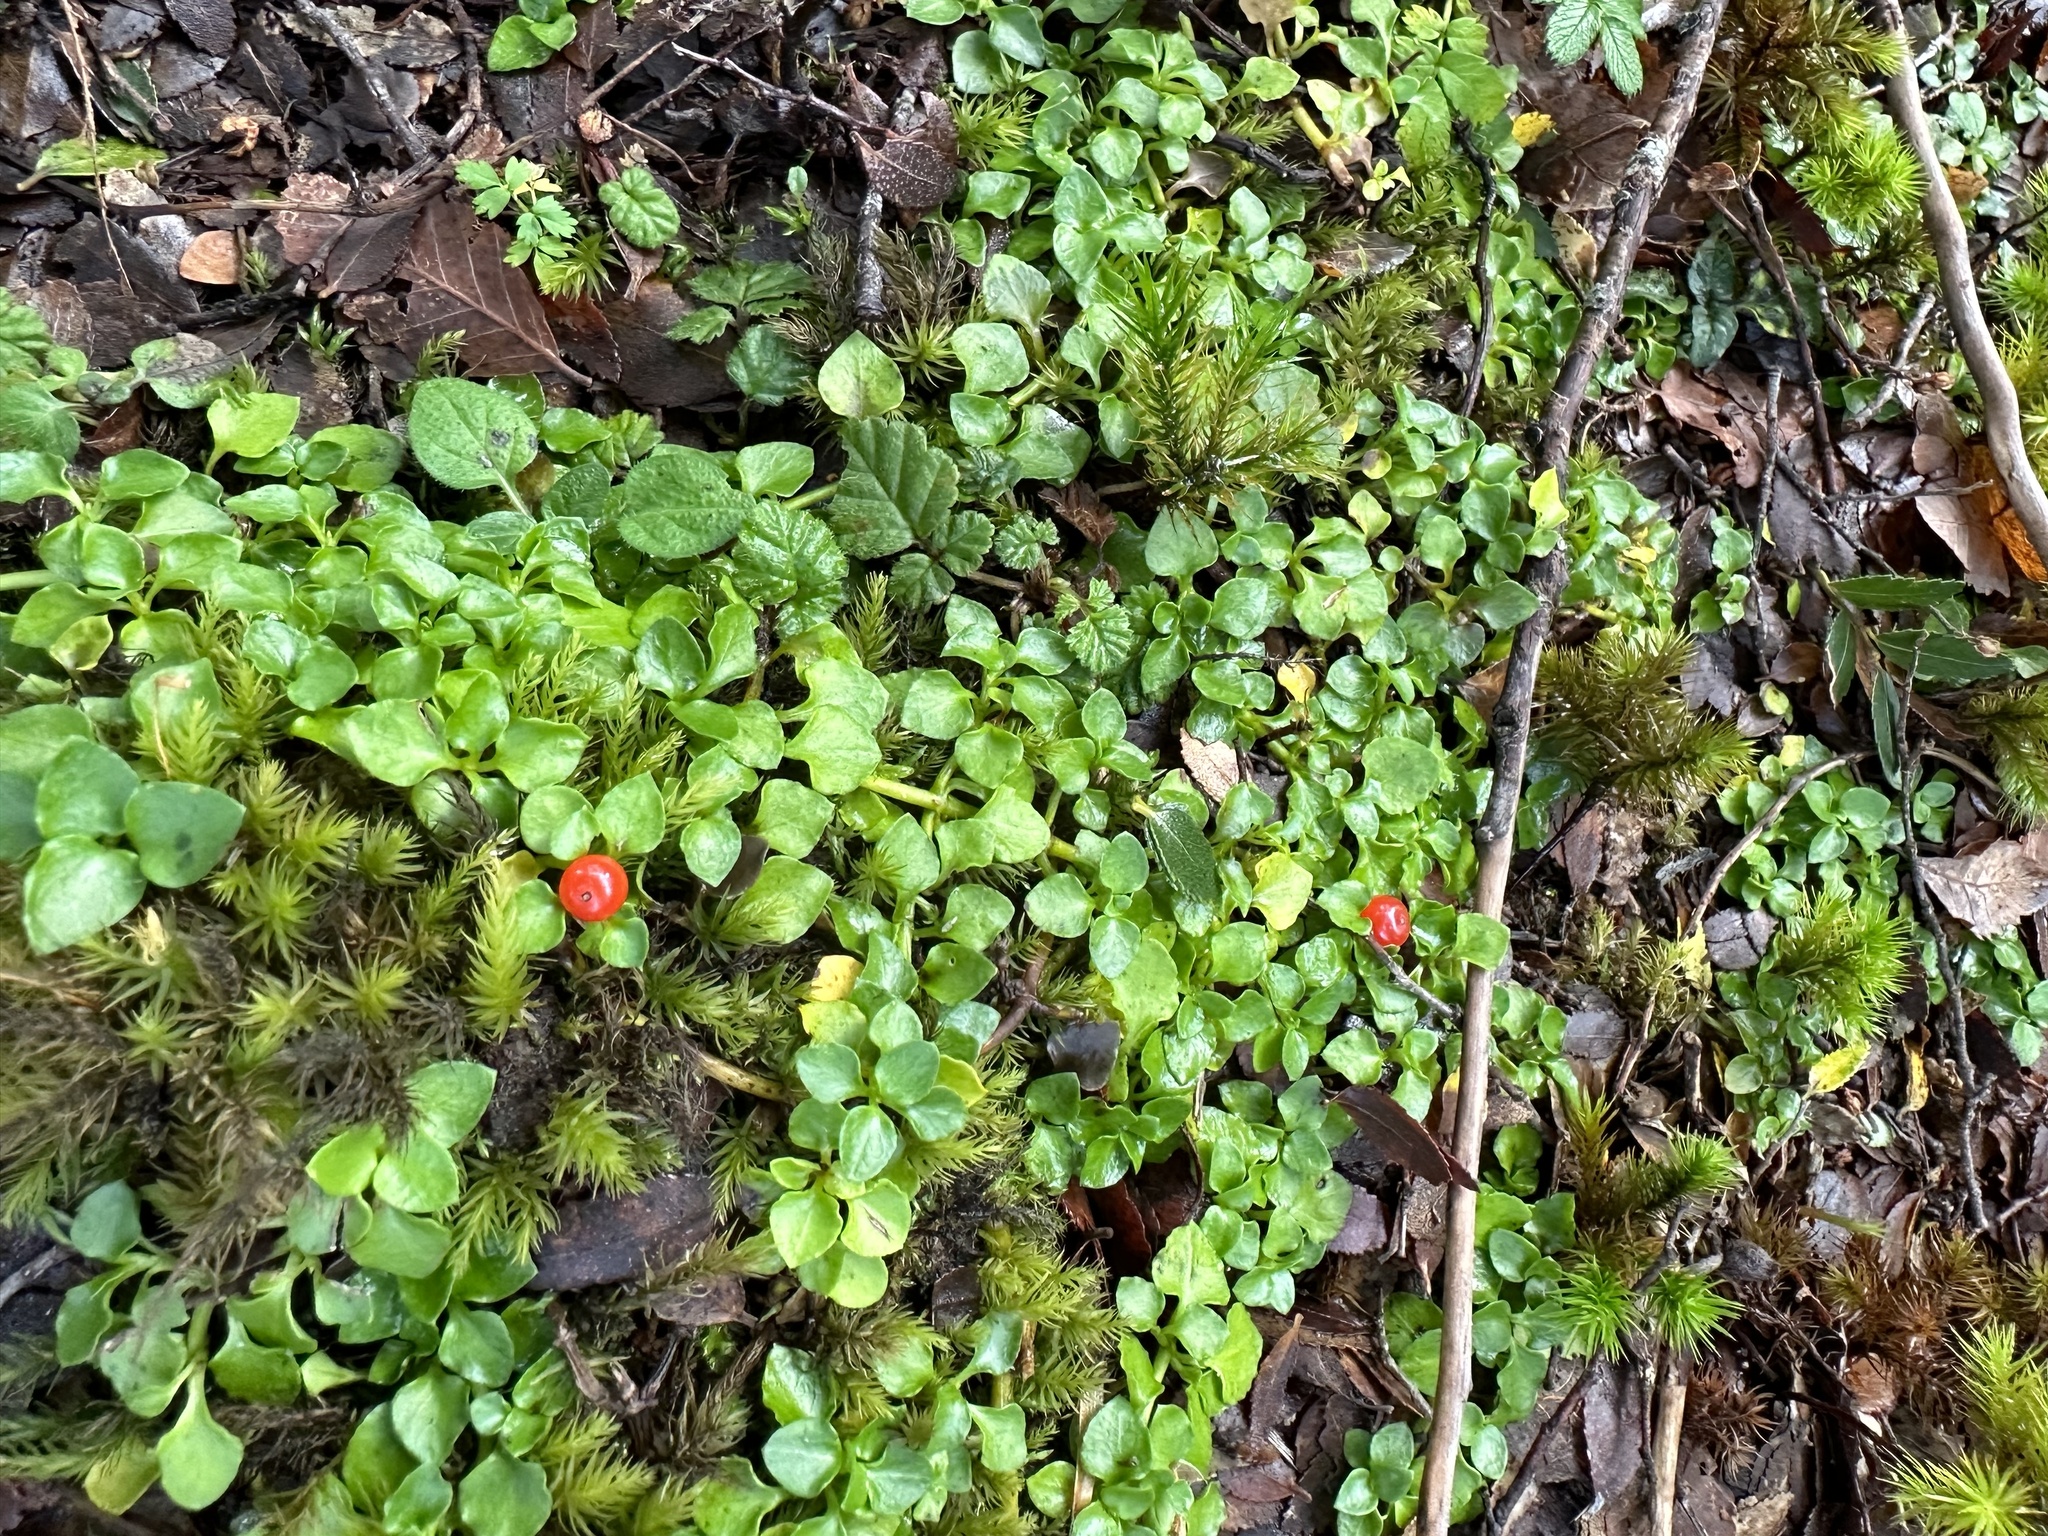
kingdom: Plantae
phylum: Tracheophyta
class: Magnoliopsida
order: Gentianales
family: Rubiaceae
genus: Nertera
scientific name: Nertera granadensis
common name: Beadplant
